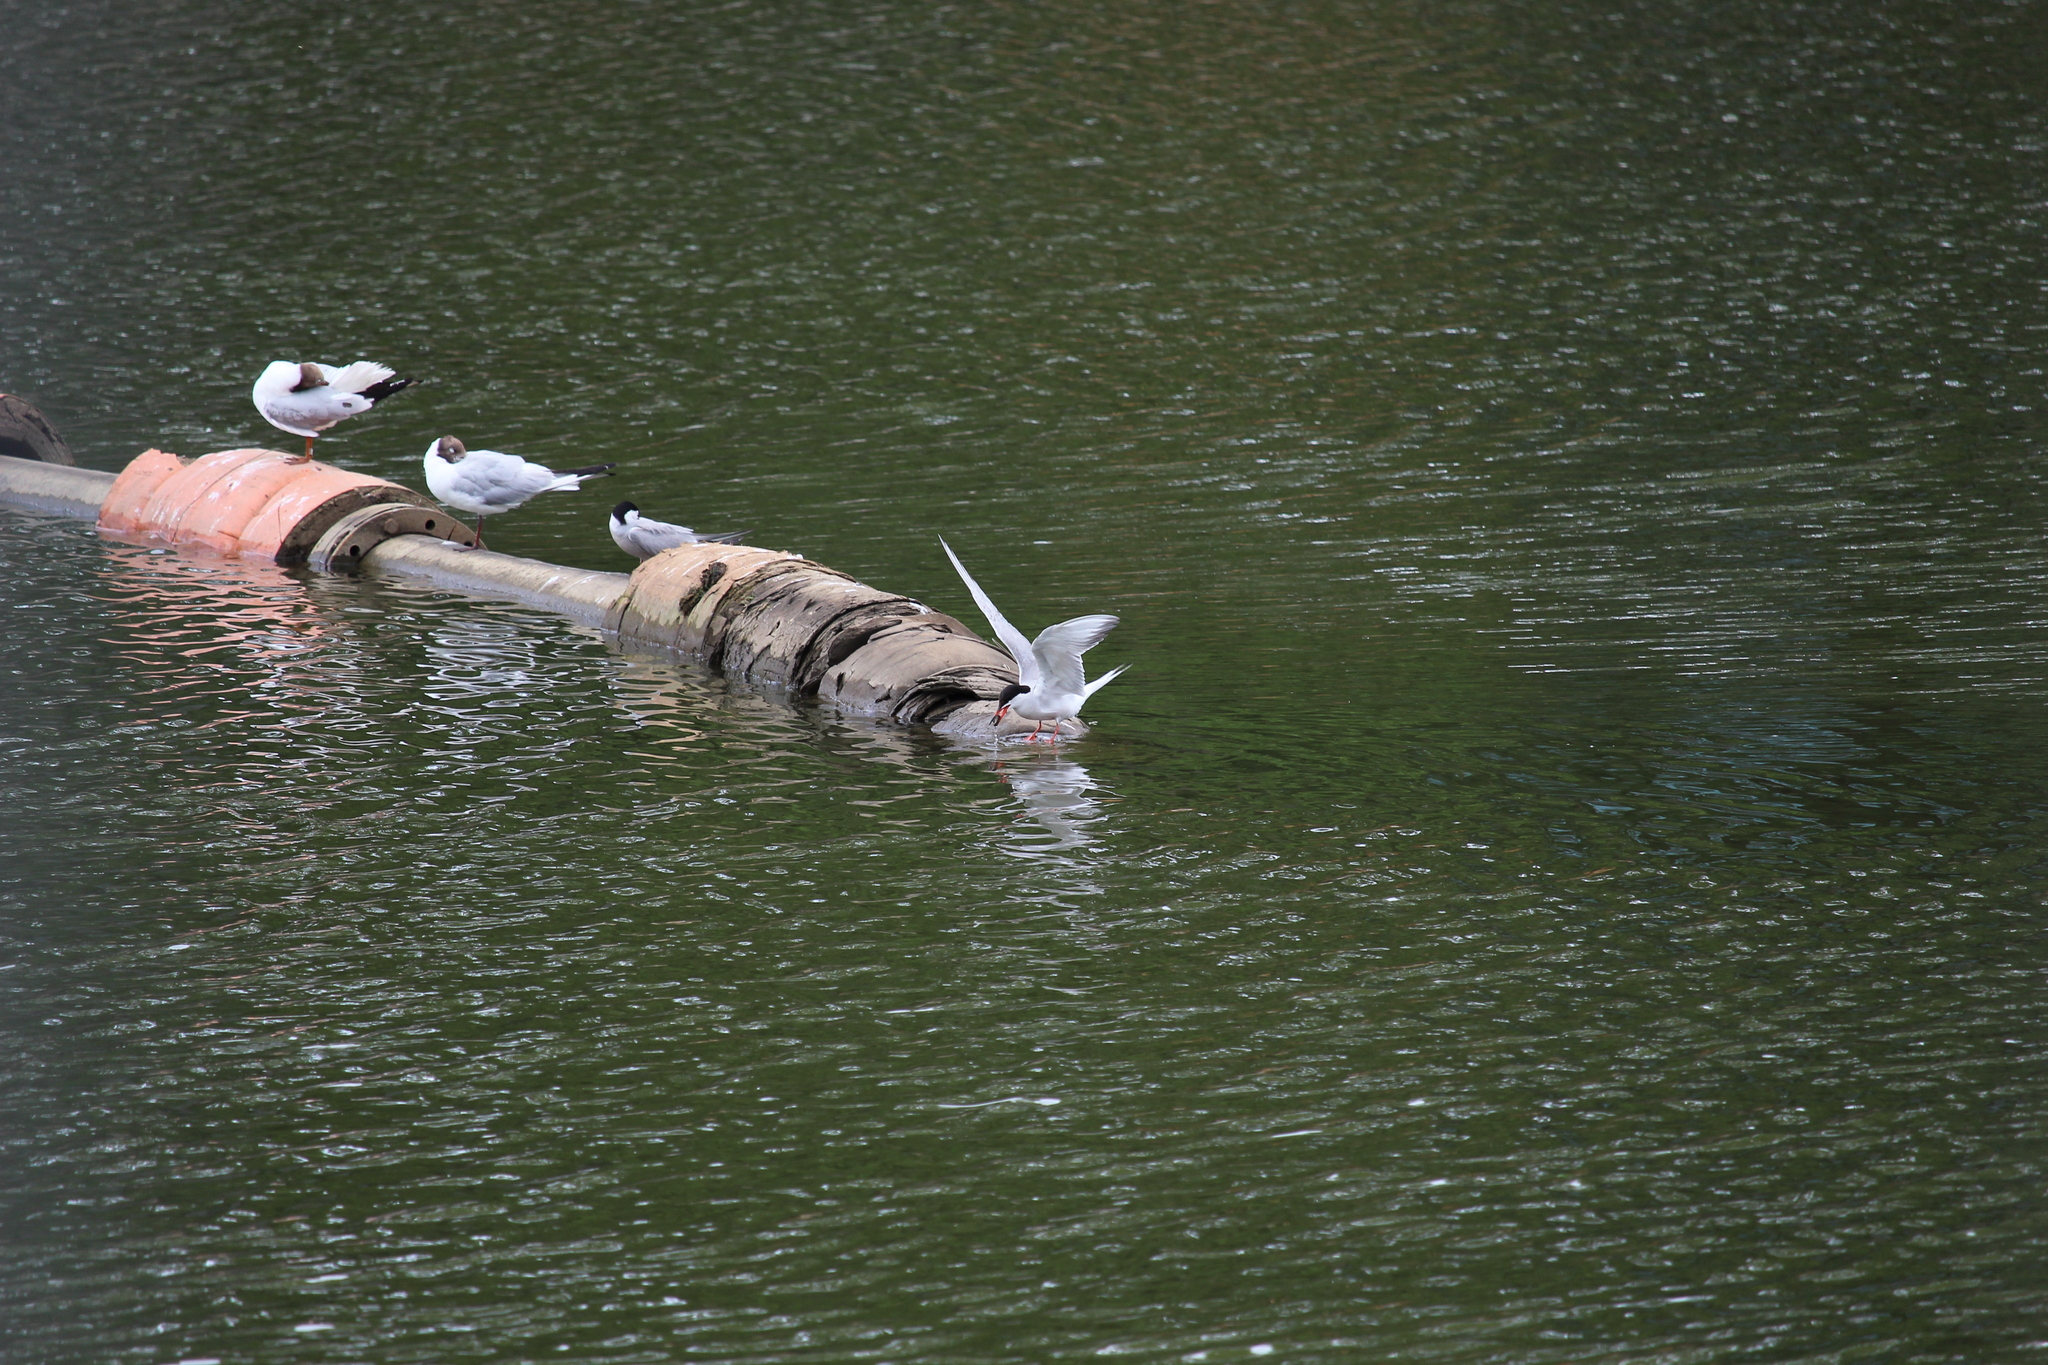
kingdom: Animalia
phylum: Chordata
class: Aves
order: Charadriiformes
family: Laridae
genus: Sterna
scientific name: Sterna hirundo
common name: Common tern
